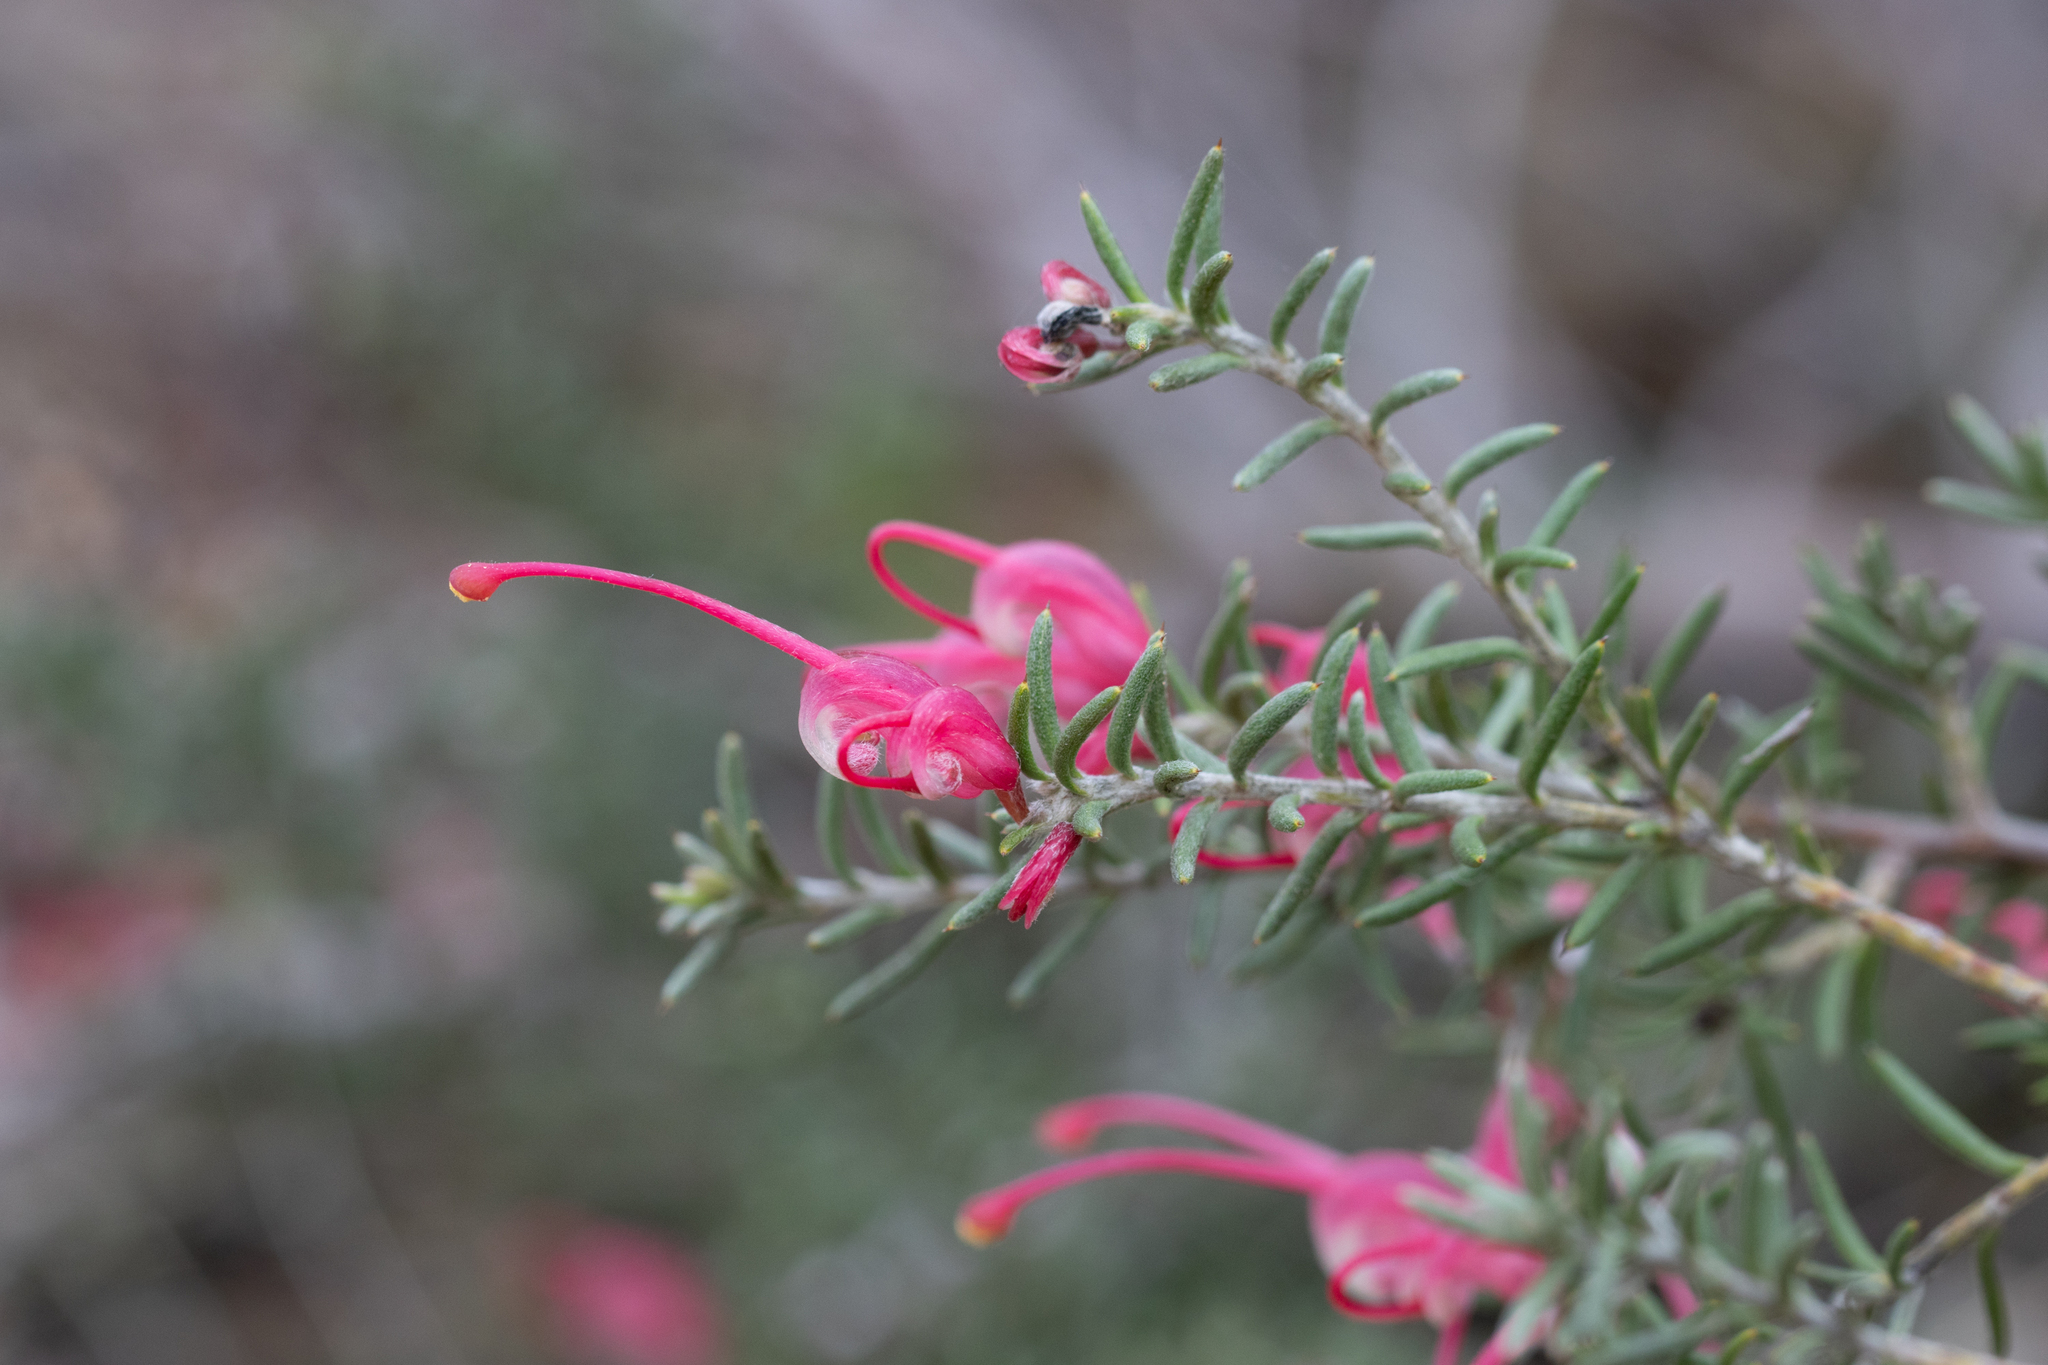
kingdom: Plantae
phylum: Tracheophyta
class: Magnoliopsida
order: Proteales
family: Proteaceae
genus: Grevillea
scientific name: Grevillea lavandulacea
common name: Lavender grevillea
